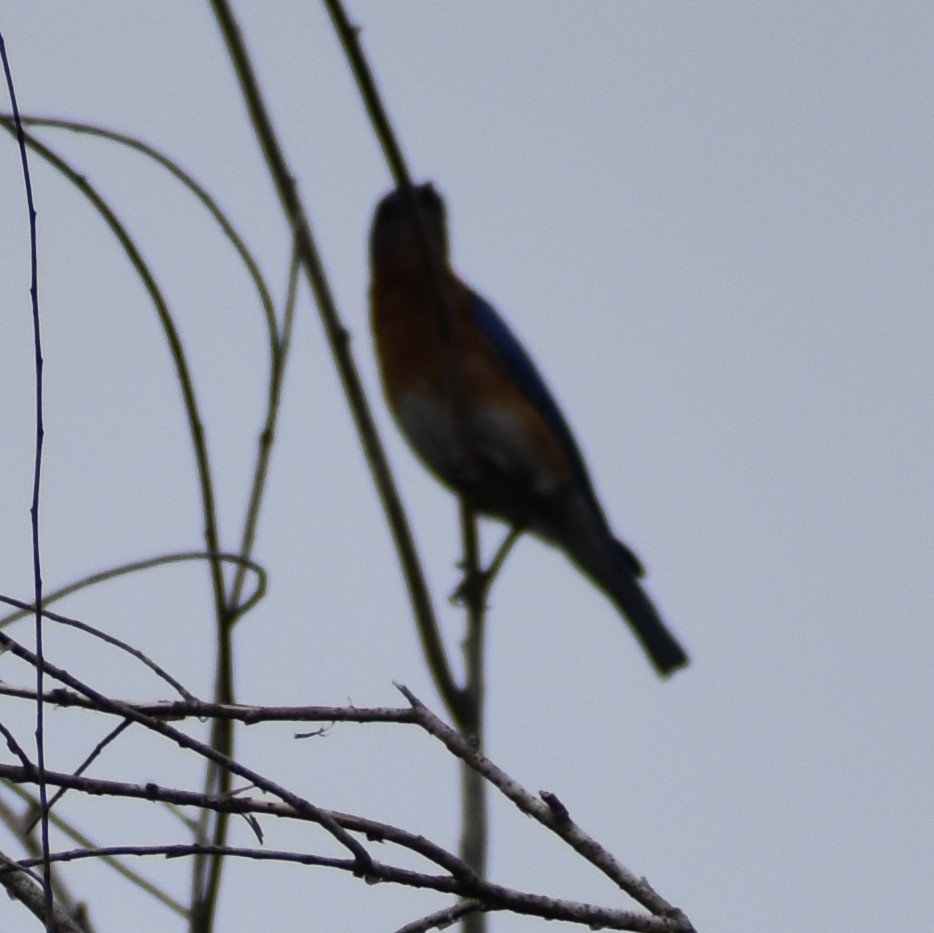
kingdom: Animalia
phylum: Chordata
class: Aves
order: Passeriformes
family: Turdidae
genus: Sialia
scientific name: Sialia sialis
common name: Eastern bluebird
